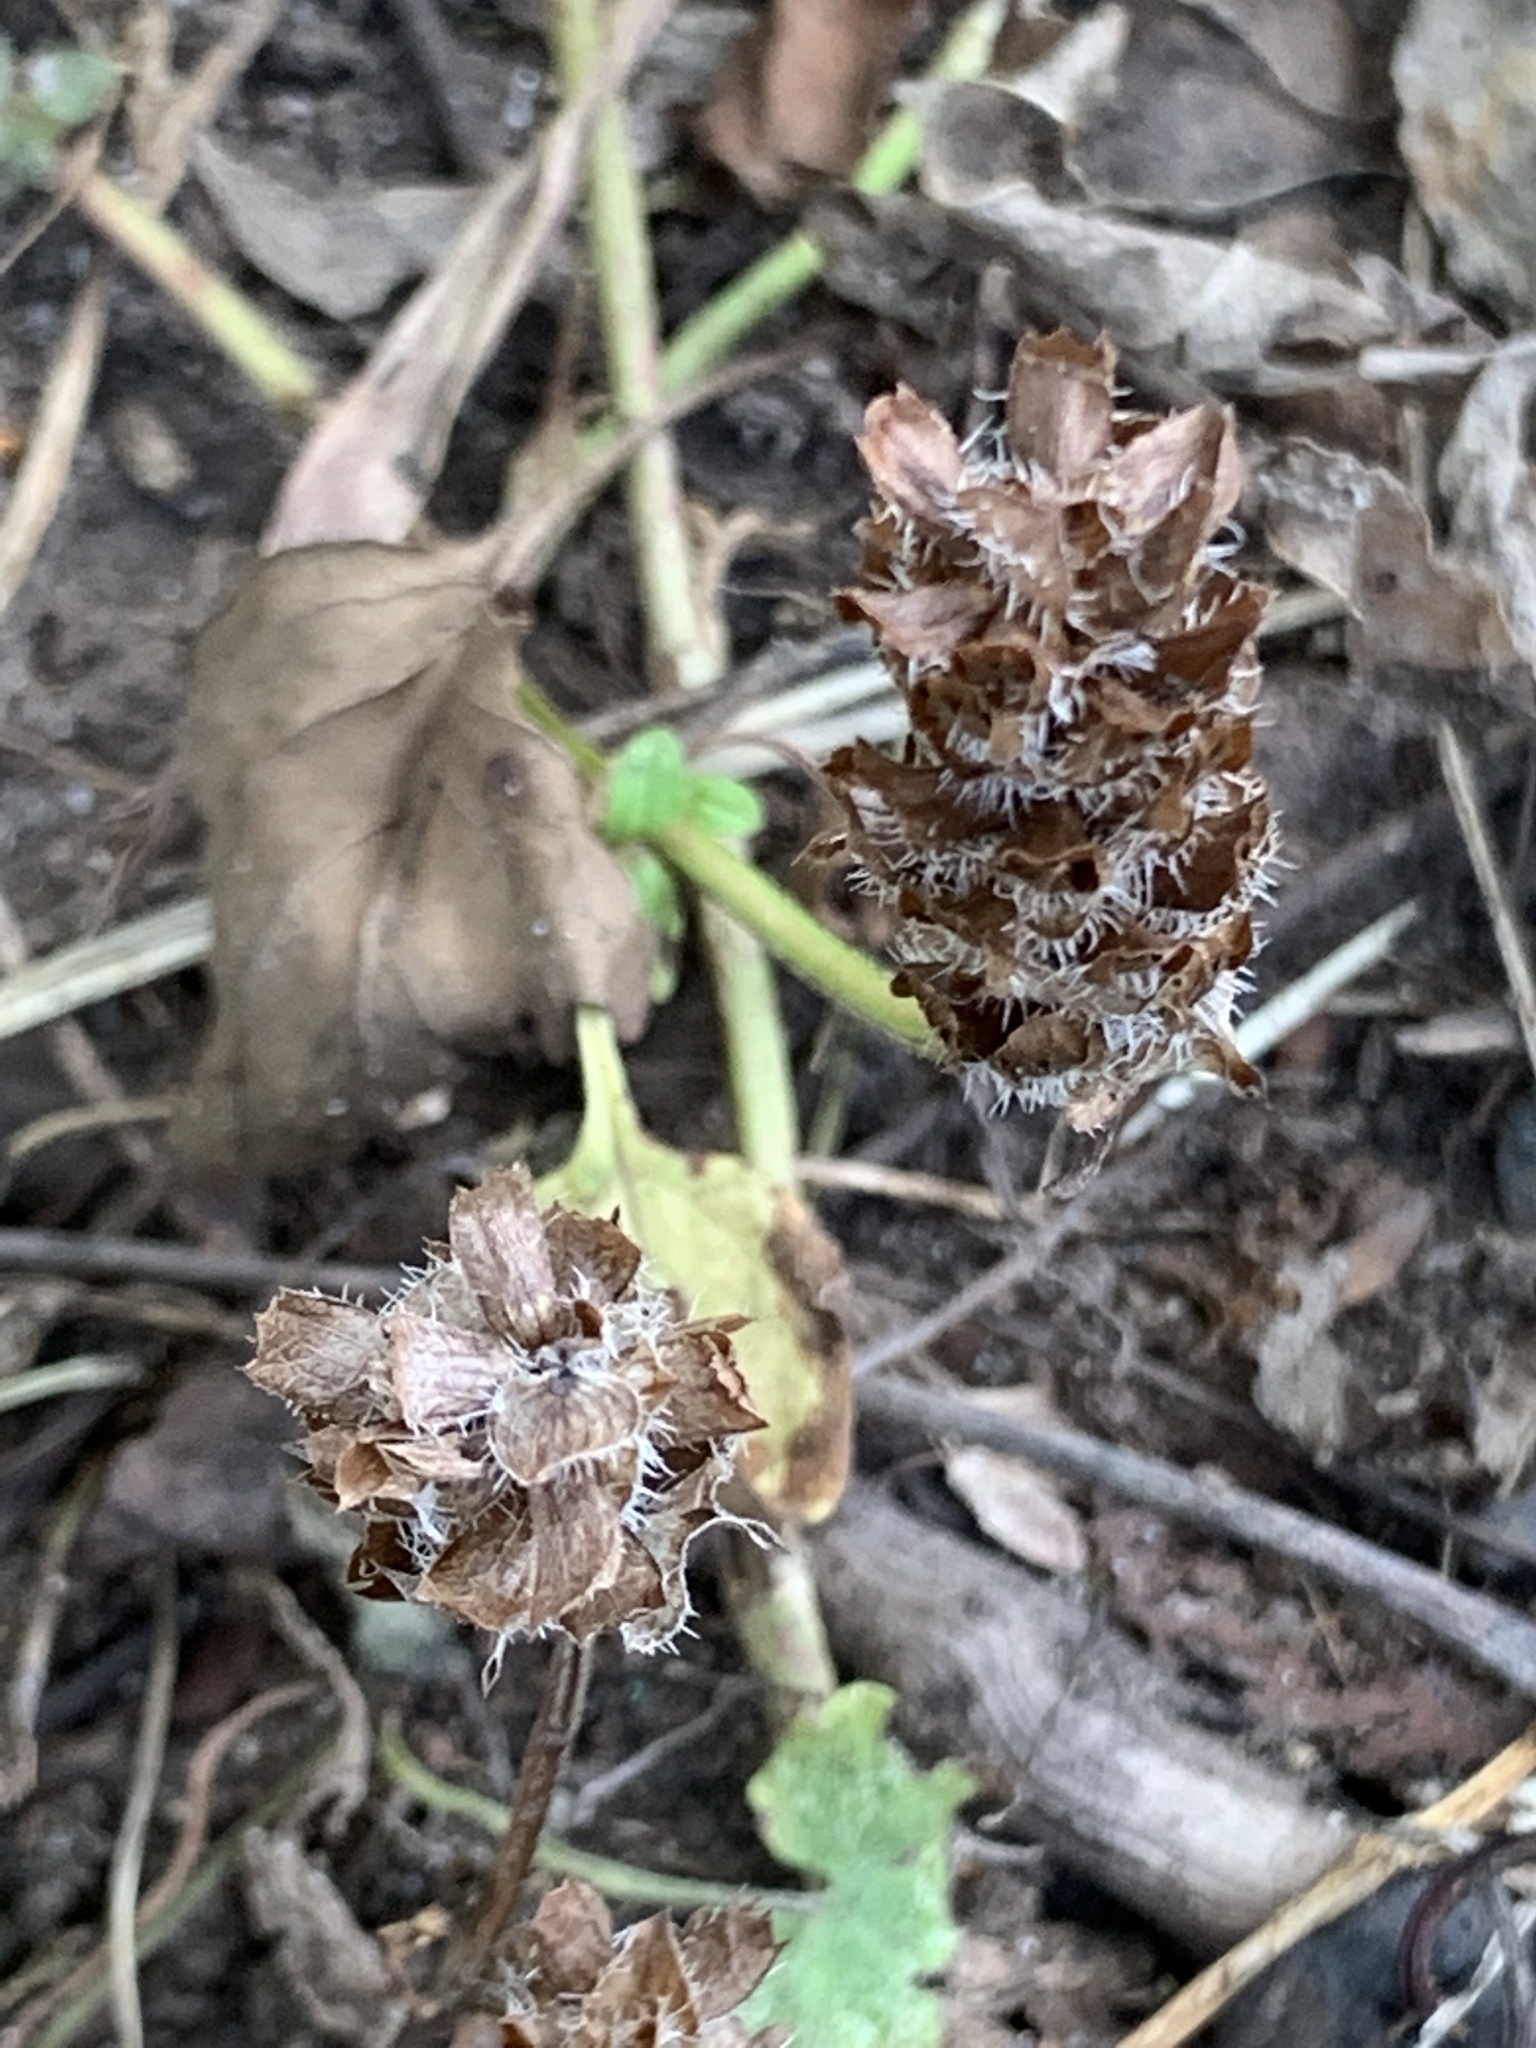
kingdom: Plantae
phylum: Tracheophyta
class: Magnoliopsida
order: Lamiales
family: Lamiaceae
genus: Prunella
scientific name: Prunella vulgaris
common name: Heal-all
